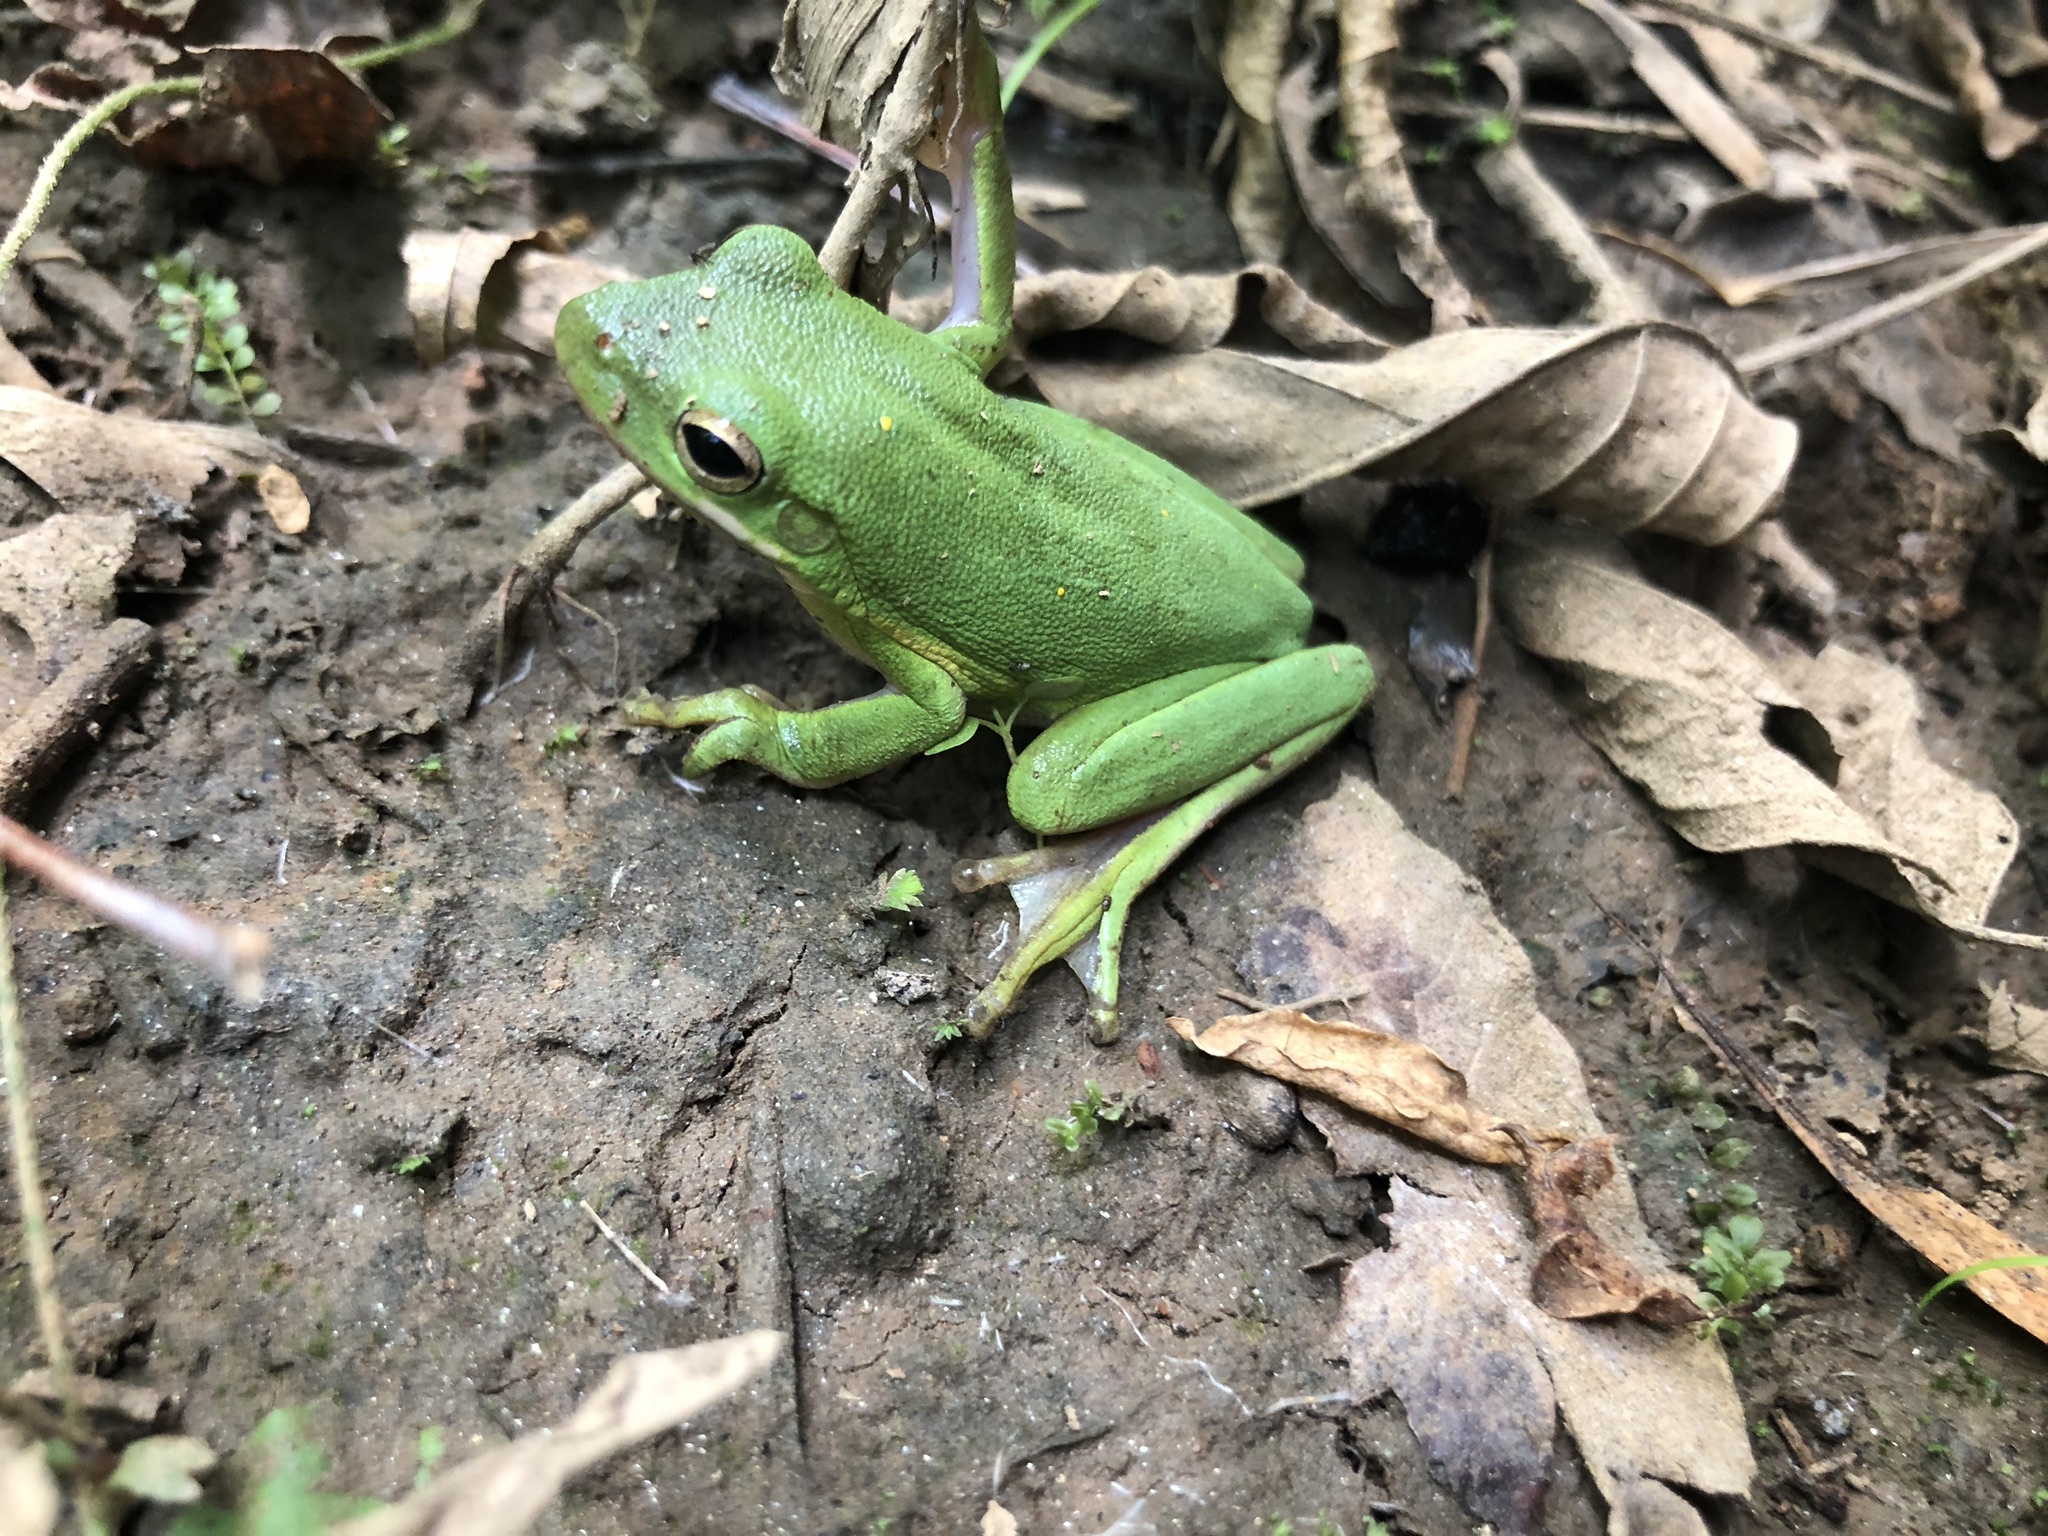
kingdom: Animalia
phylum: Chordata
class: Amphibia
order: Anura
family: Hylidae
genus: Dryophytes
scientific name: Dryophytes cinereus
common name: Green treefrog
